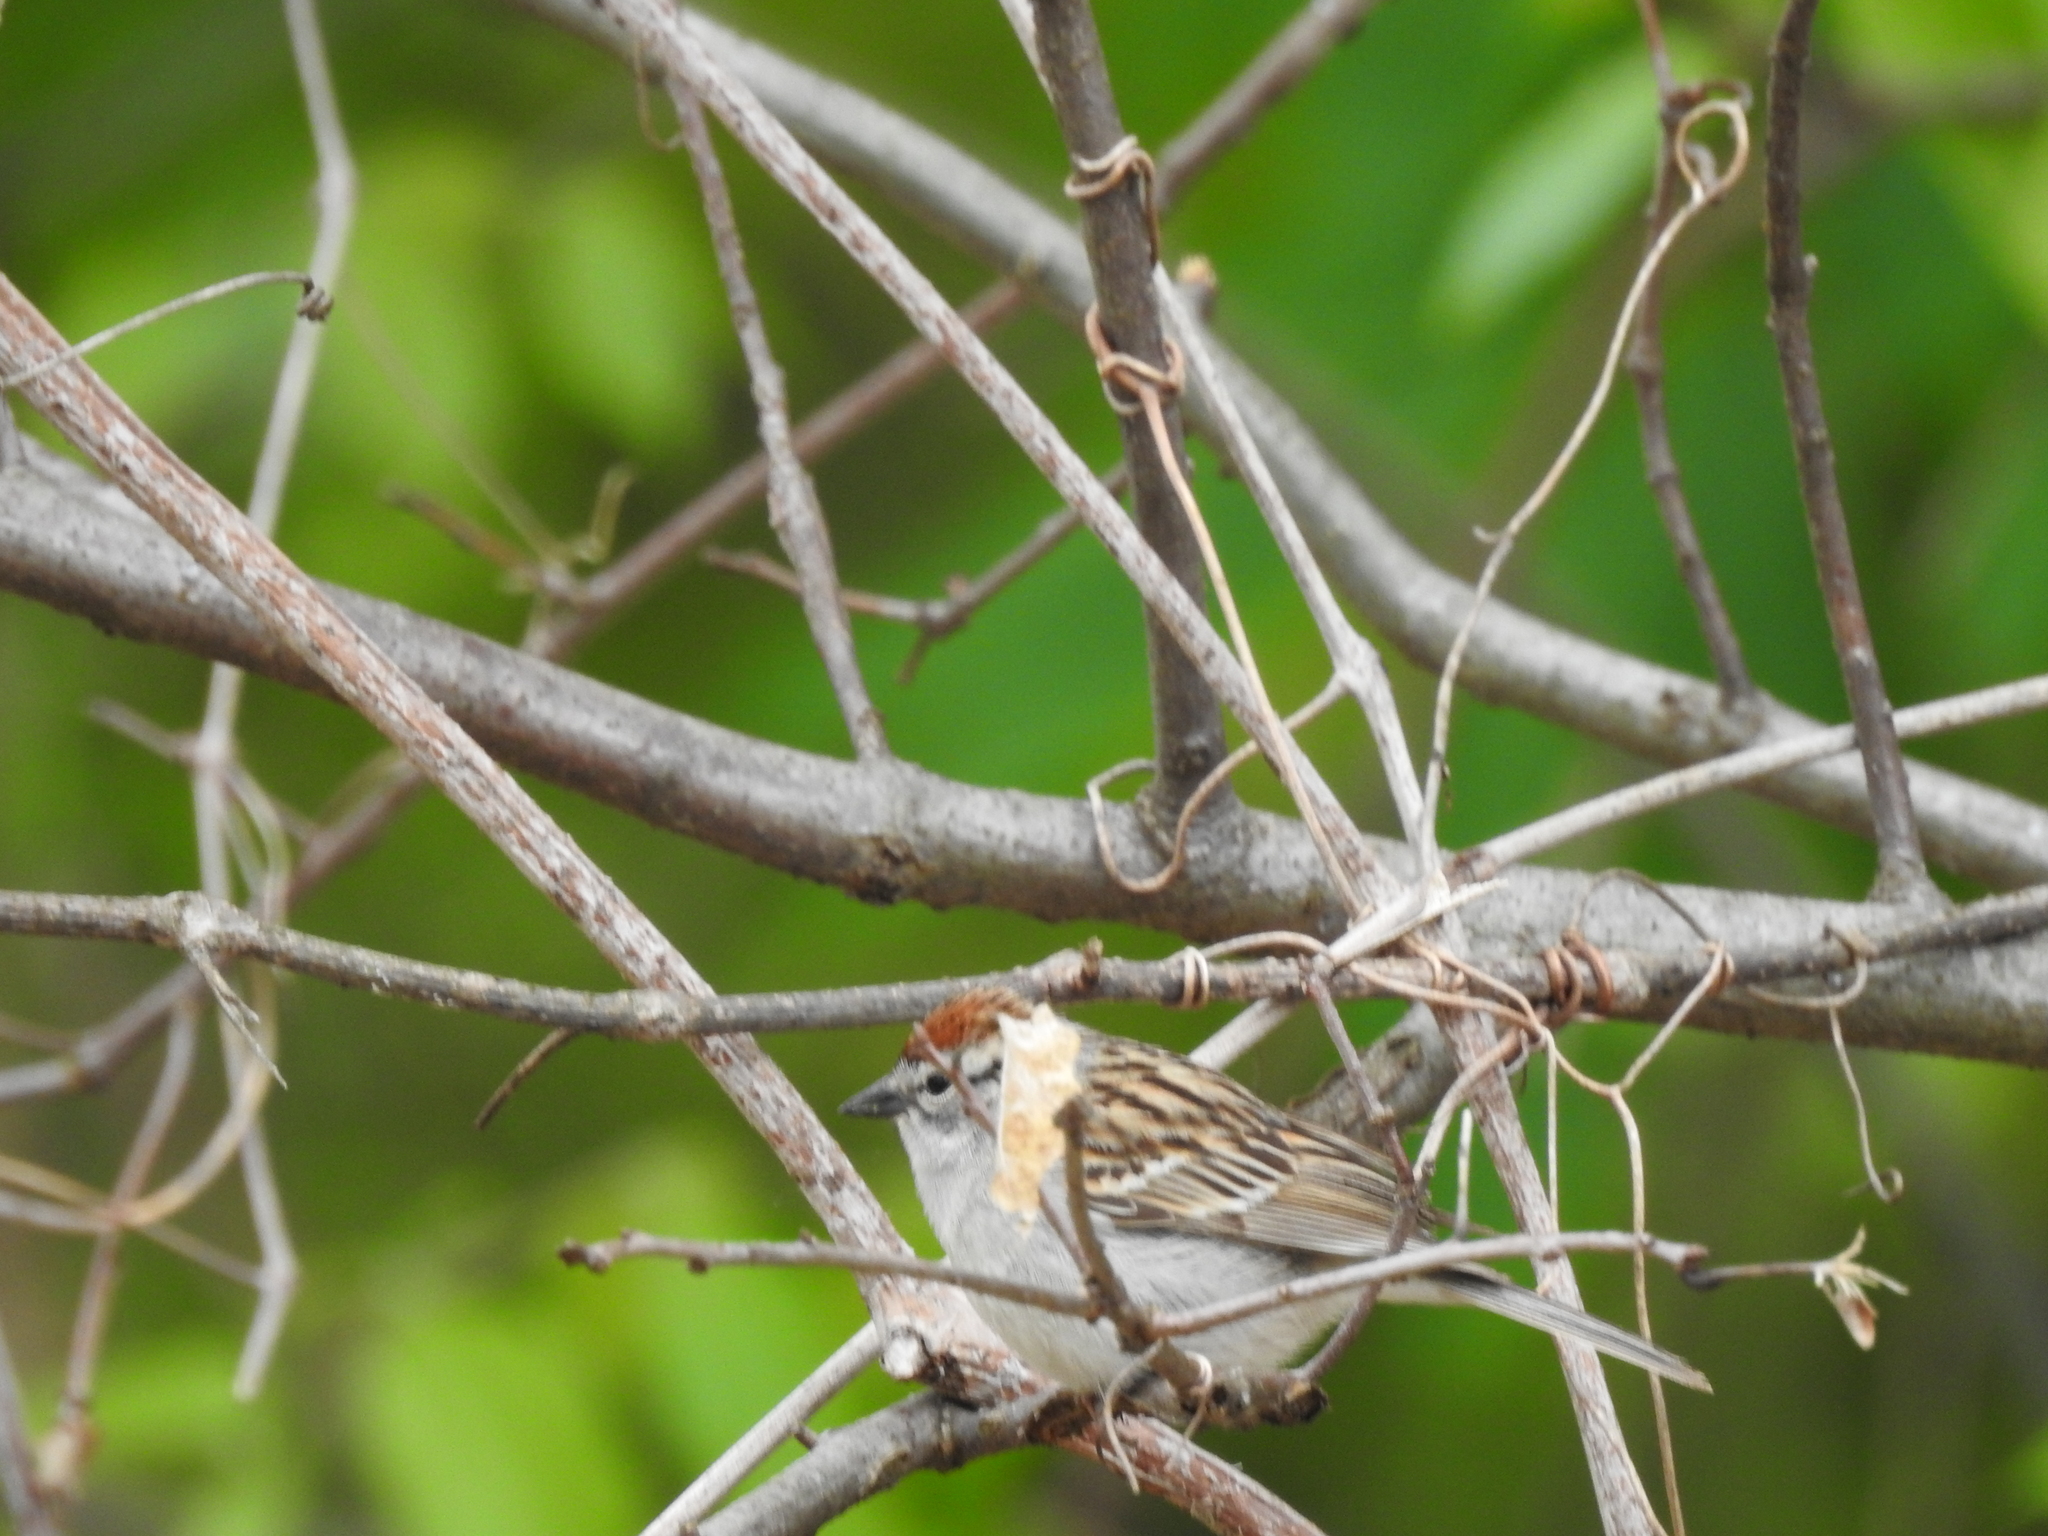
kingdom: Animalia
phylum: Chordata
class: Aves
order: Passeriformes
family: Passerellidae
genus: Spizella
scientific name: Spizella passerina
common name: Chipping sparrow
